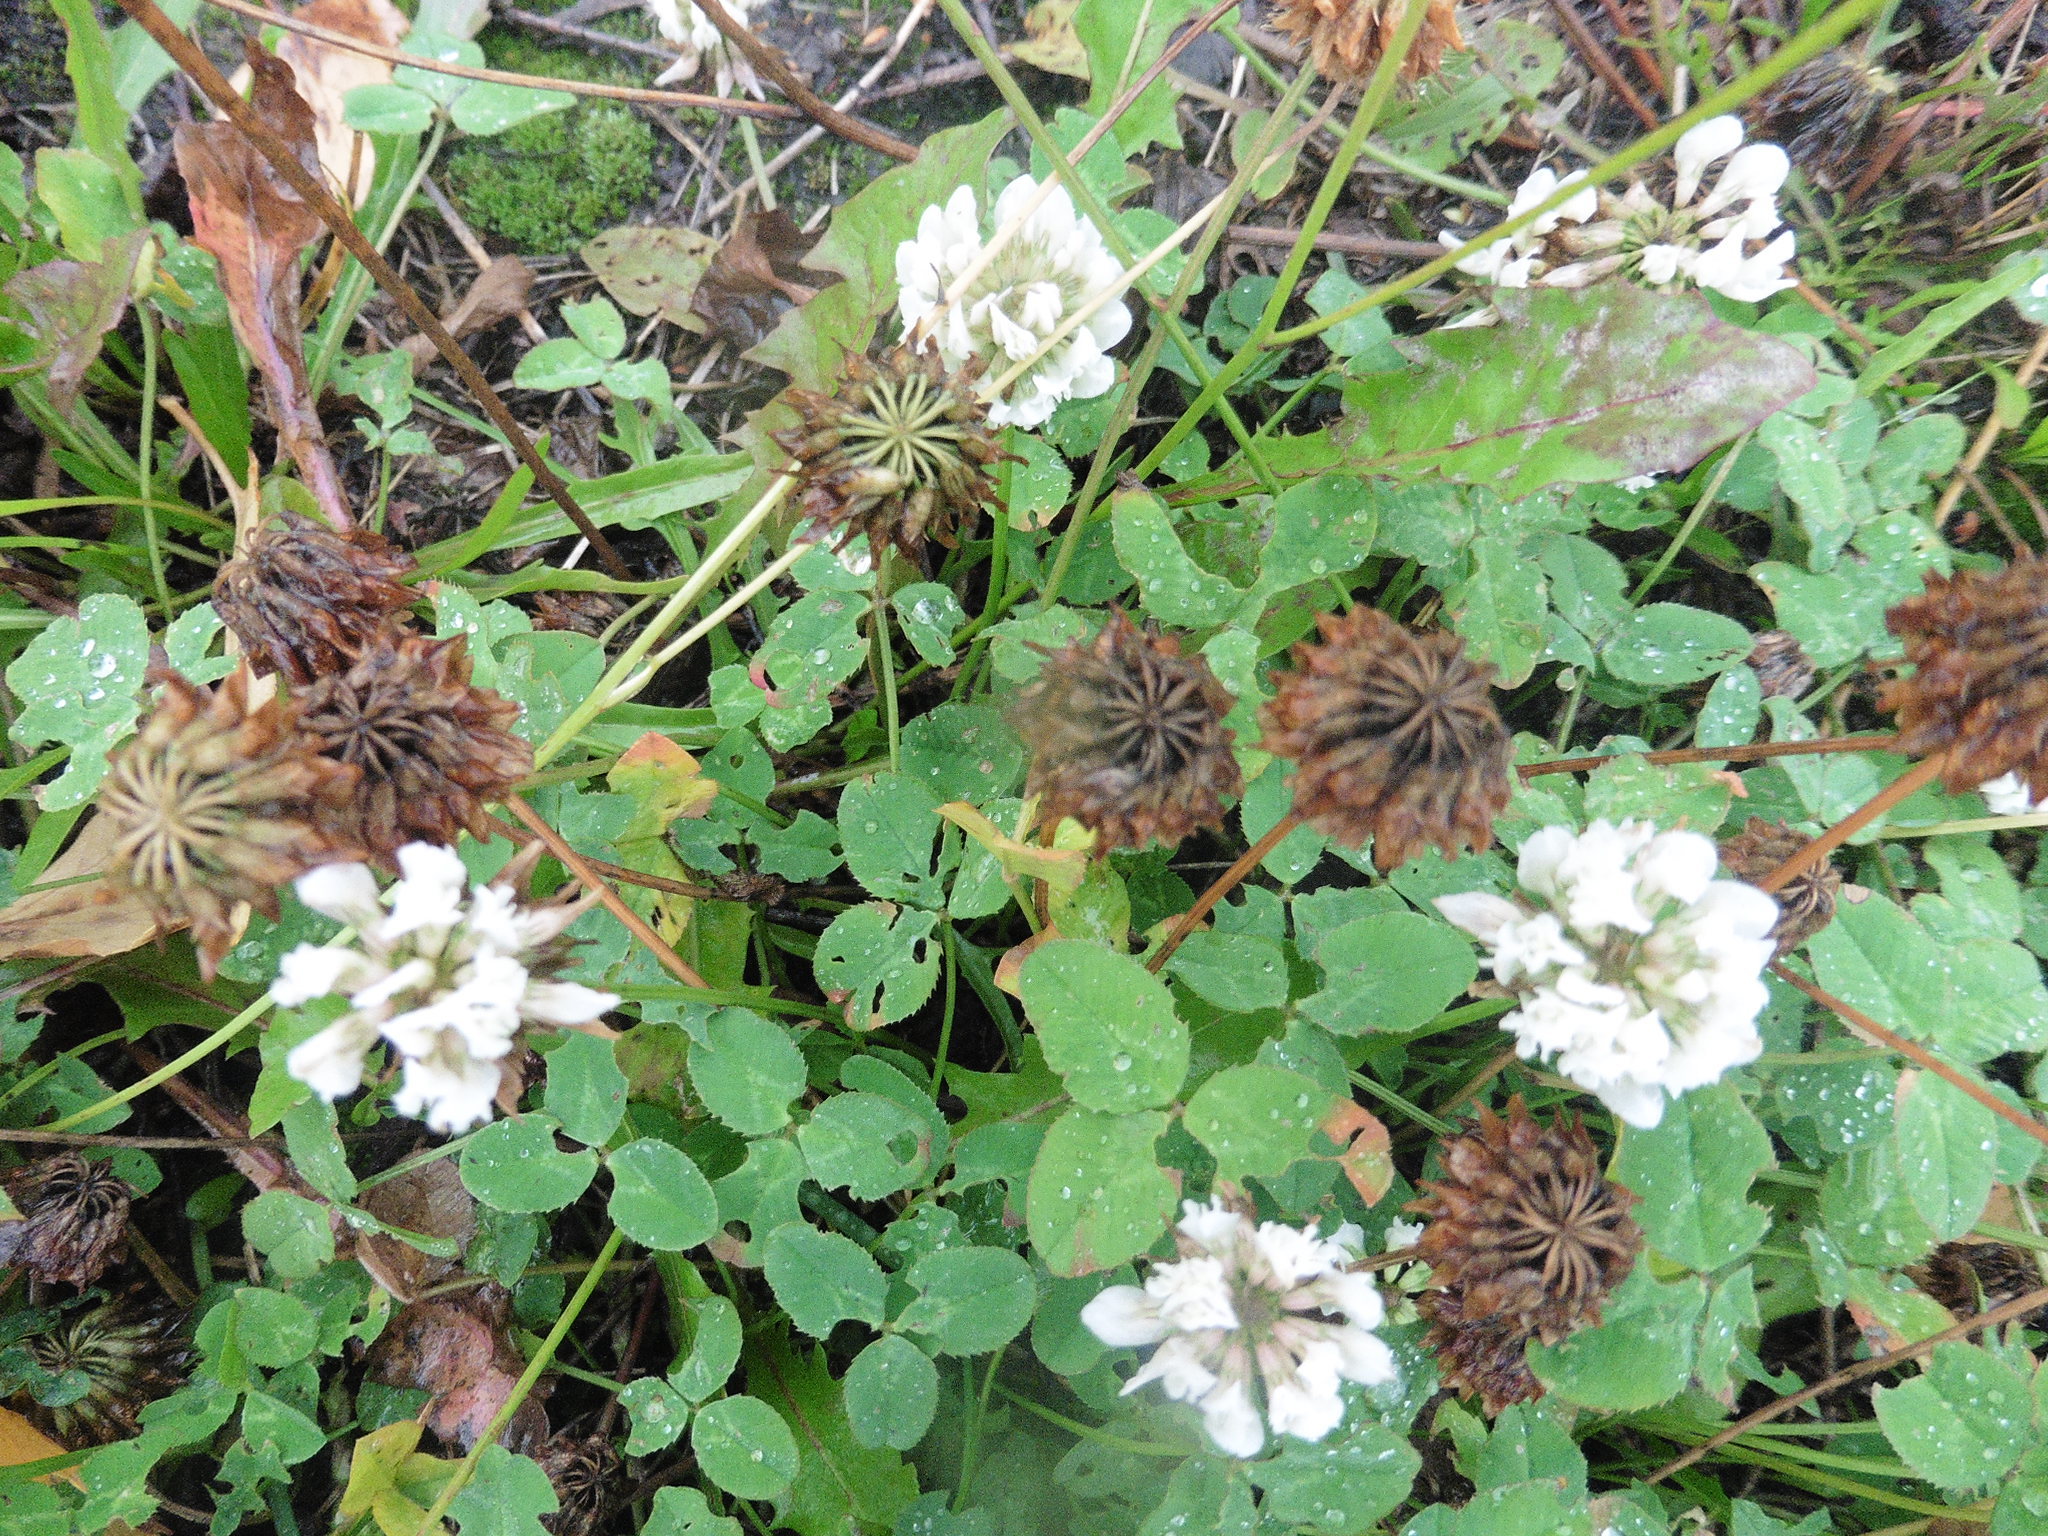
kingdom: Plantae
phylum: Tracheophyta
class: Magnoliopsida
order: Fabales
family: Fabaceae
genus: Trifolium
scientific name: Trifolium repens
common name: White clover
